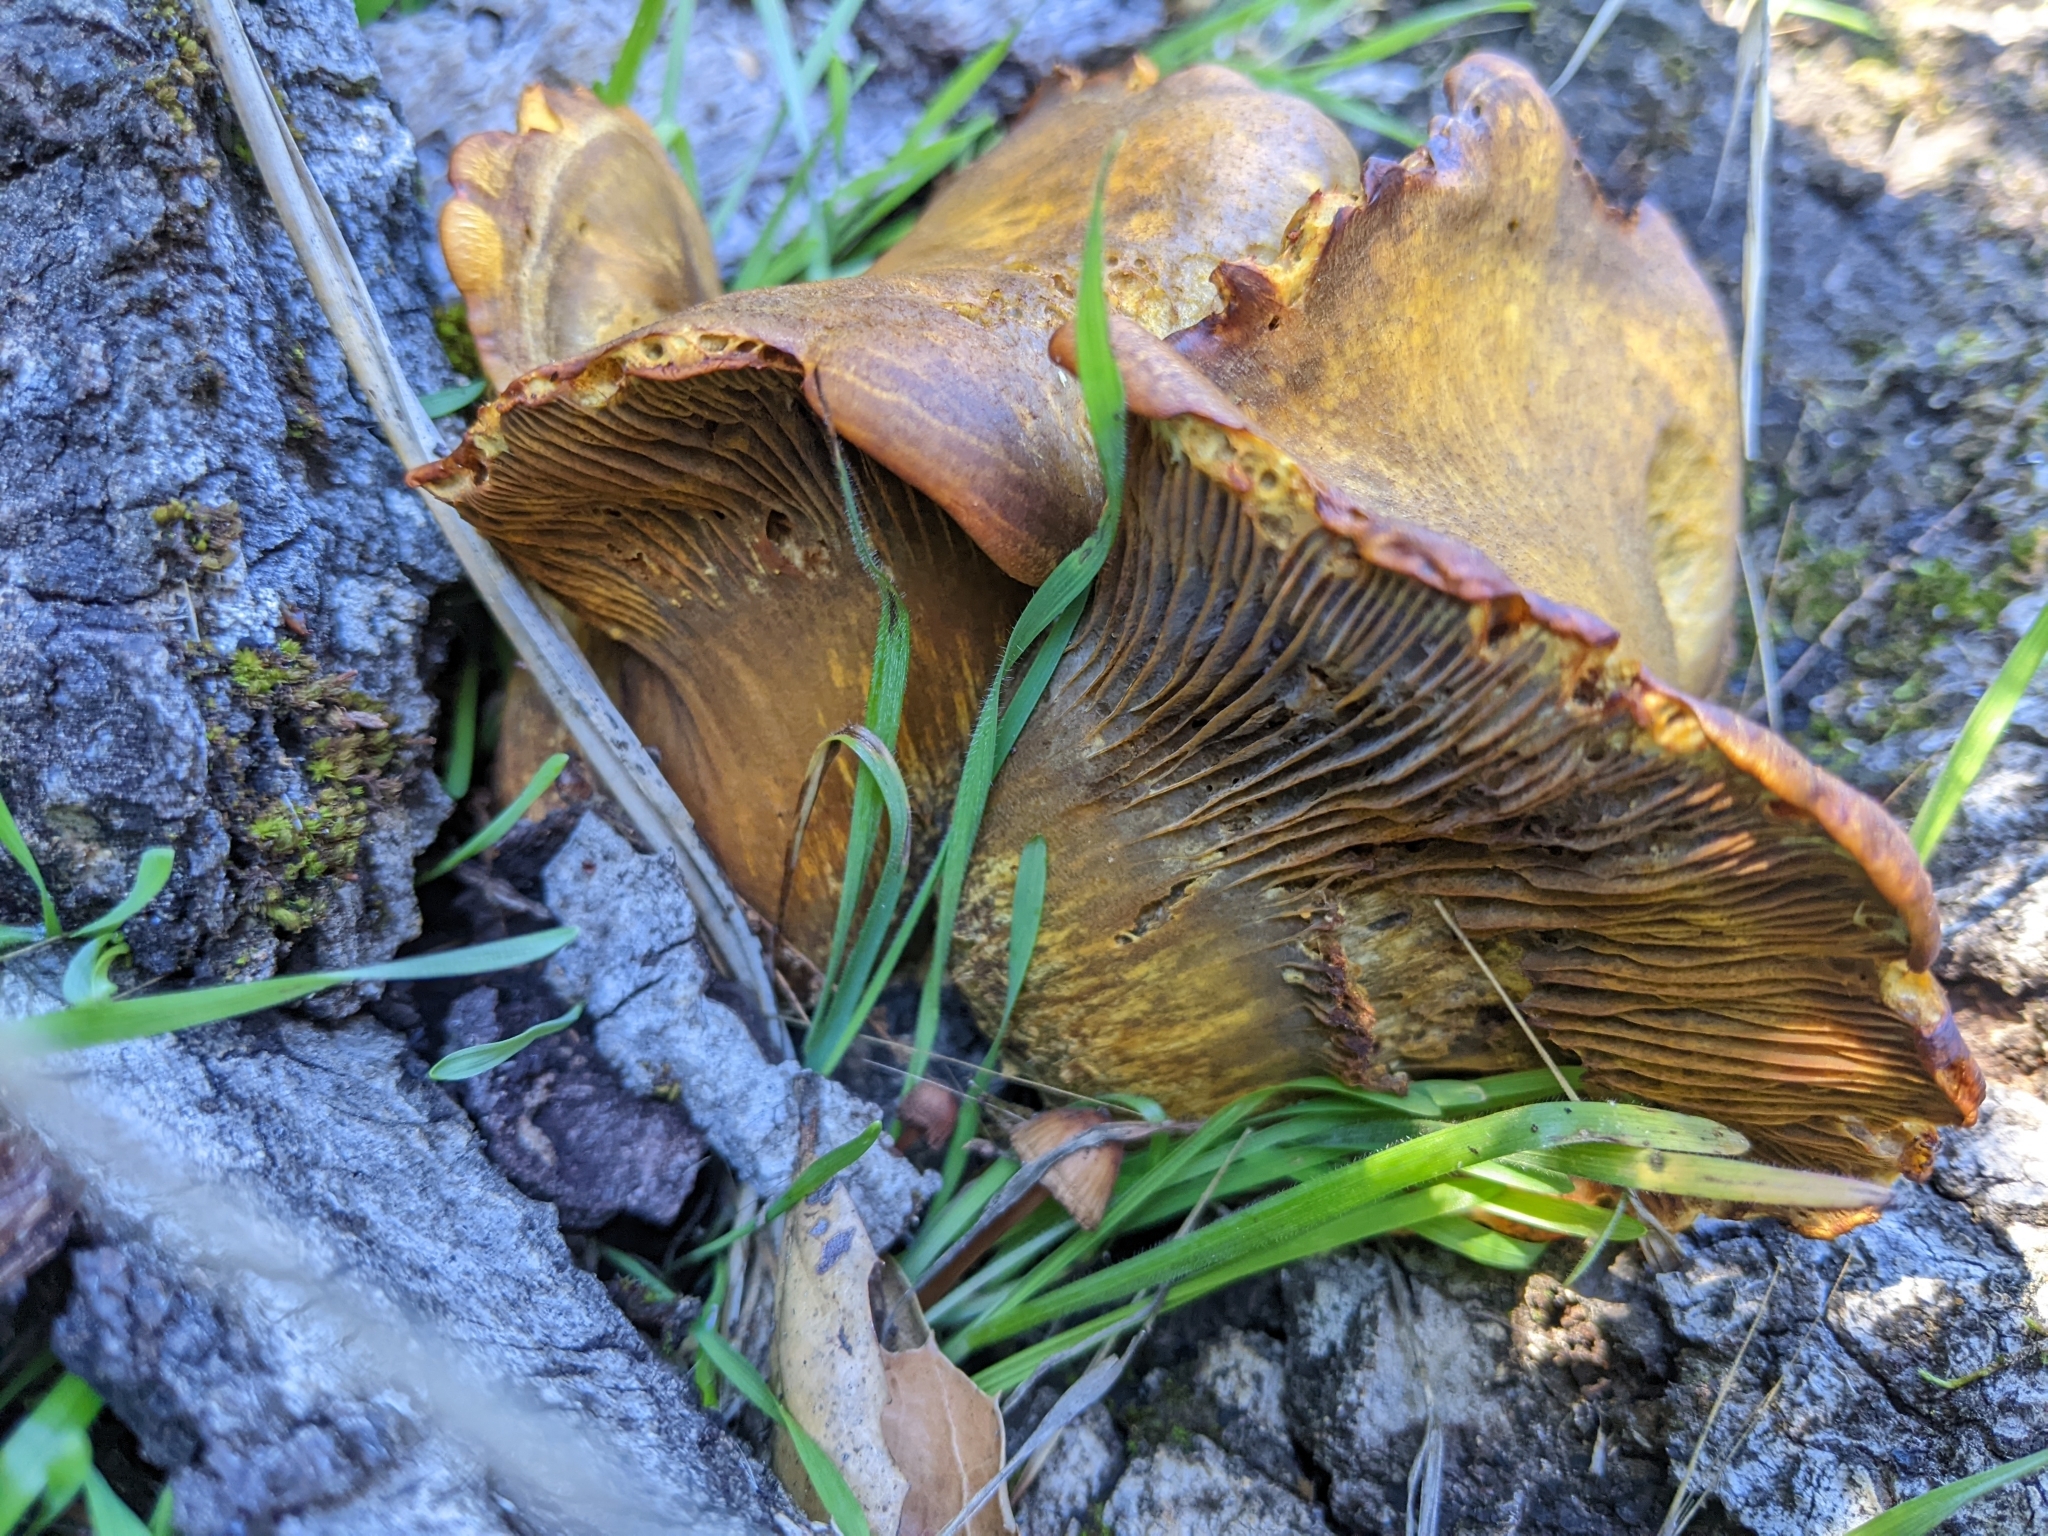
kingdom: Fungi
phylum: Basidiomycota
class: Agaricomycetes
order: Agaricales
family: Omphalotaceae
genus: Omphalotus
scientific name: Omphalotus olivascens
